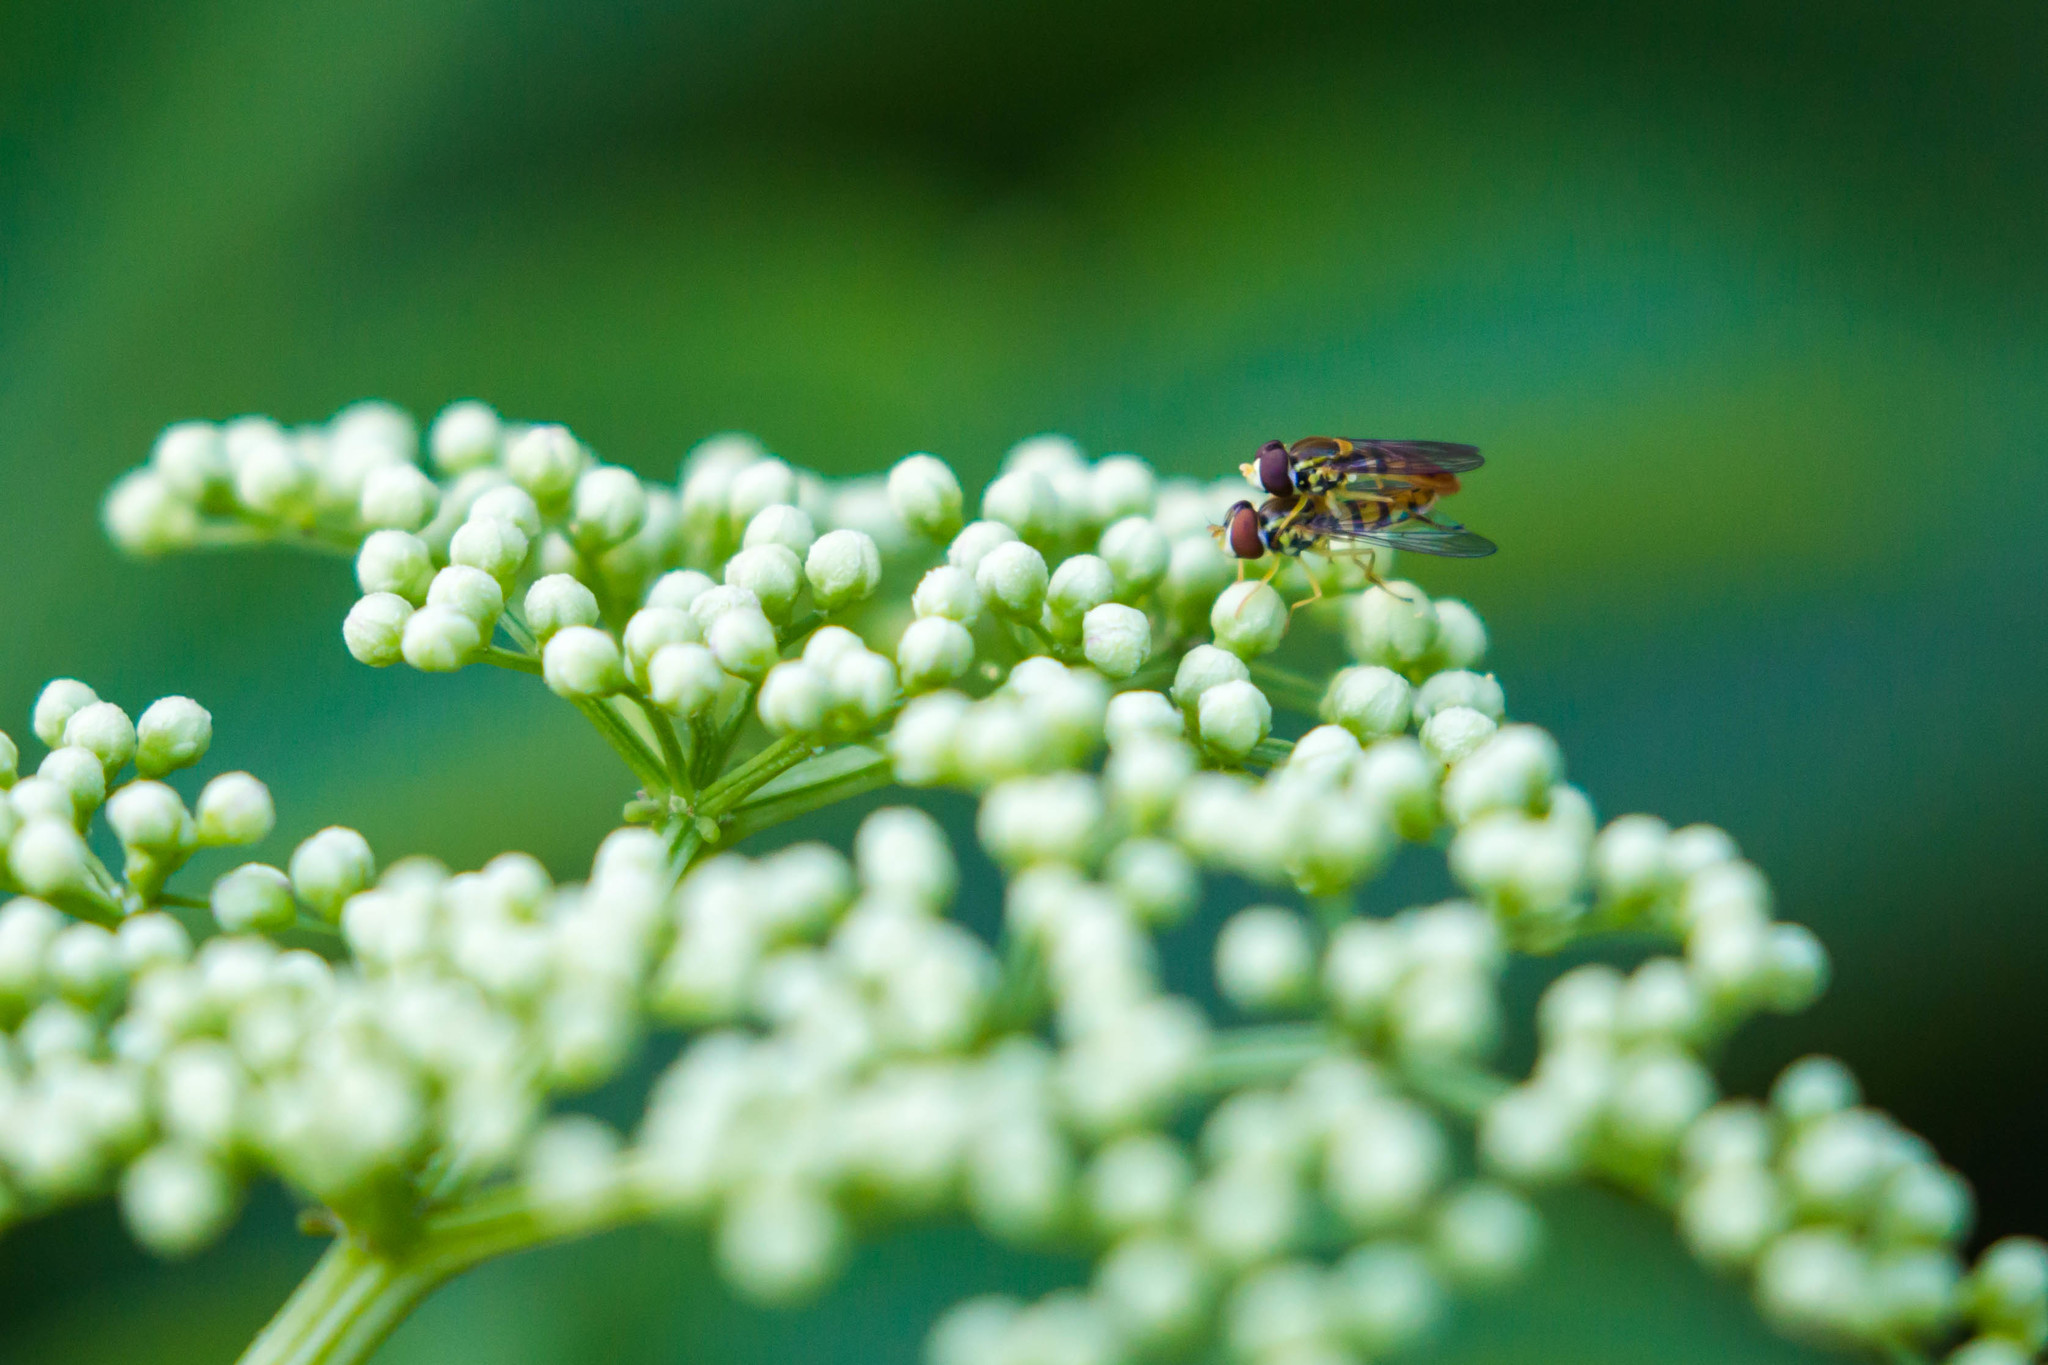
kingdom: Animalia
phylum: Arthropoda
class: Insecta
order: Diptera
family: Syrphidae
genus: Toxomerus
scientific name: Toxomerus marginatus
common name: Syrphid fly
